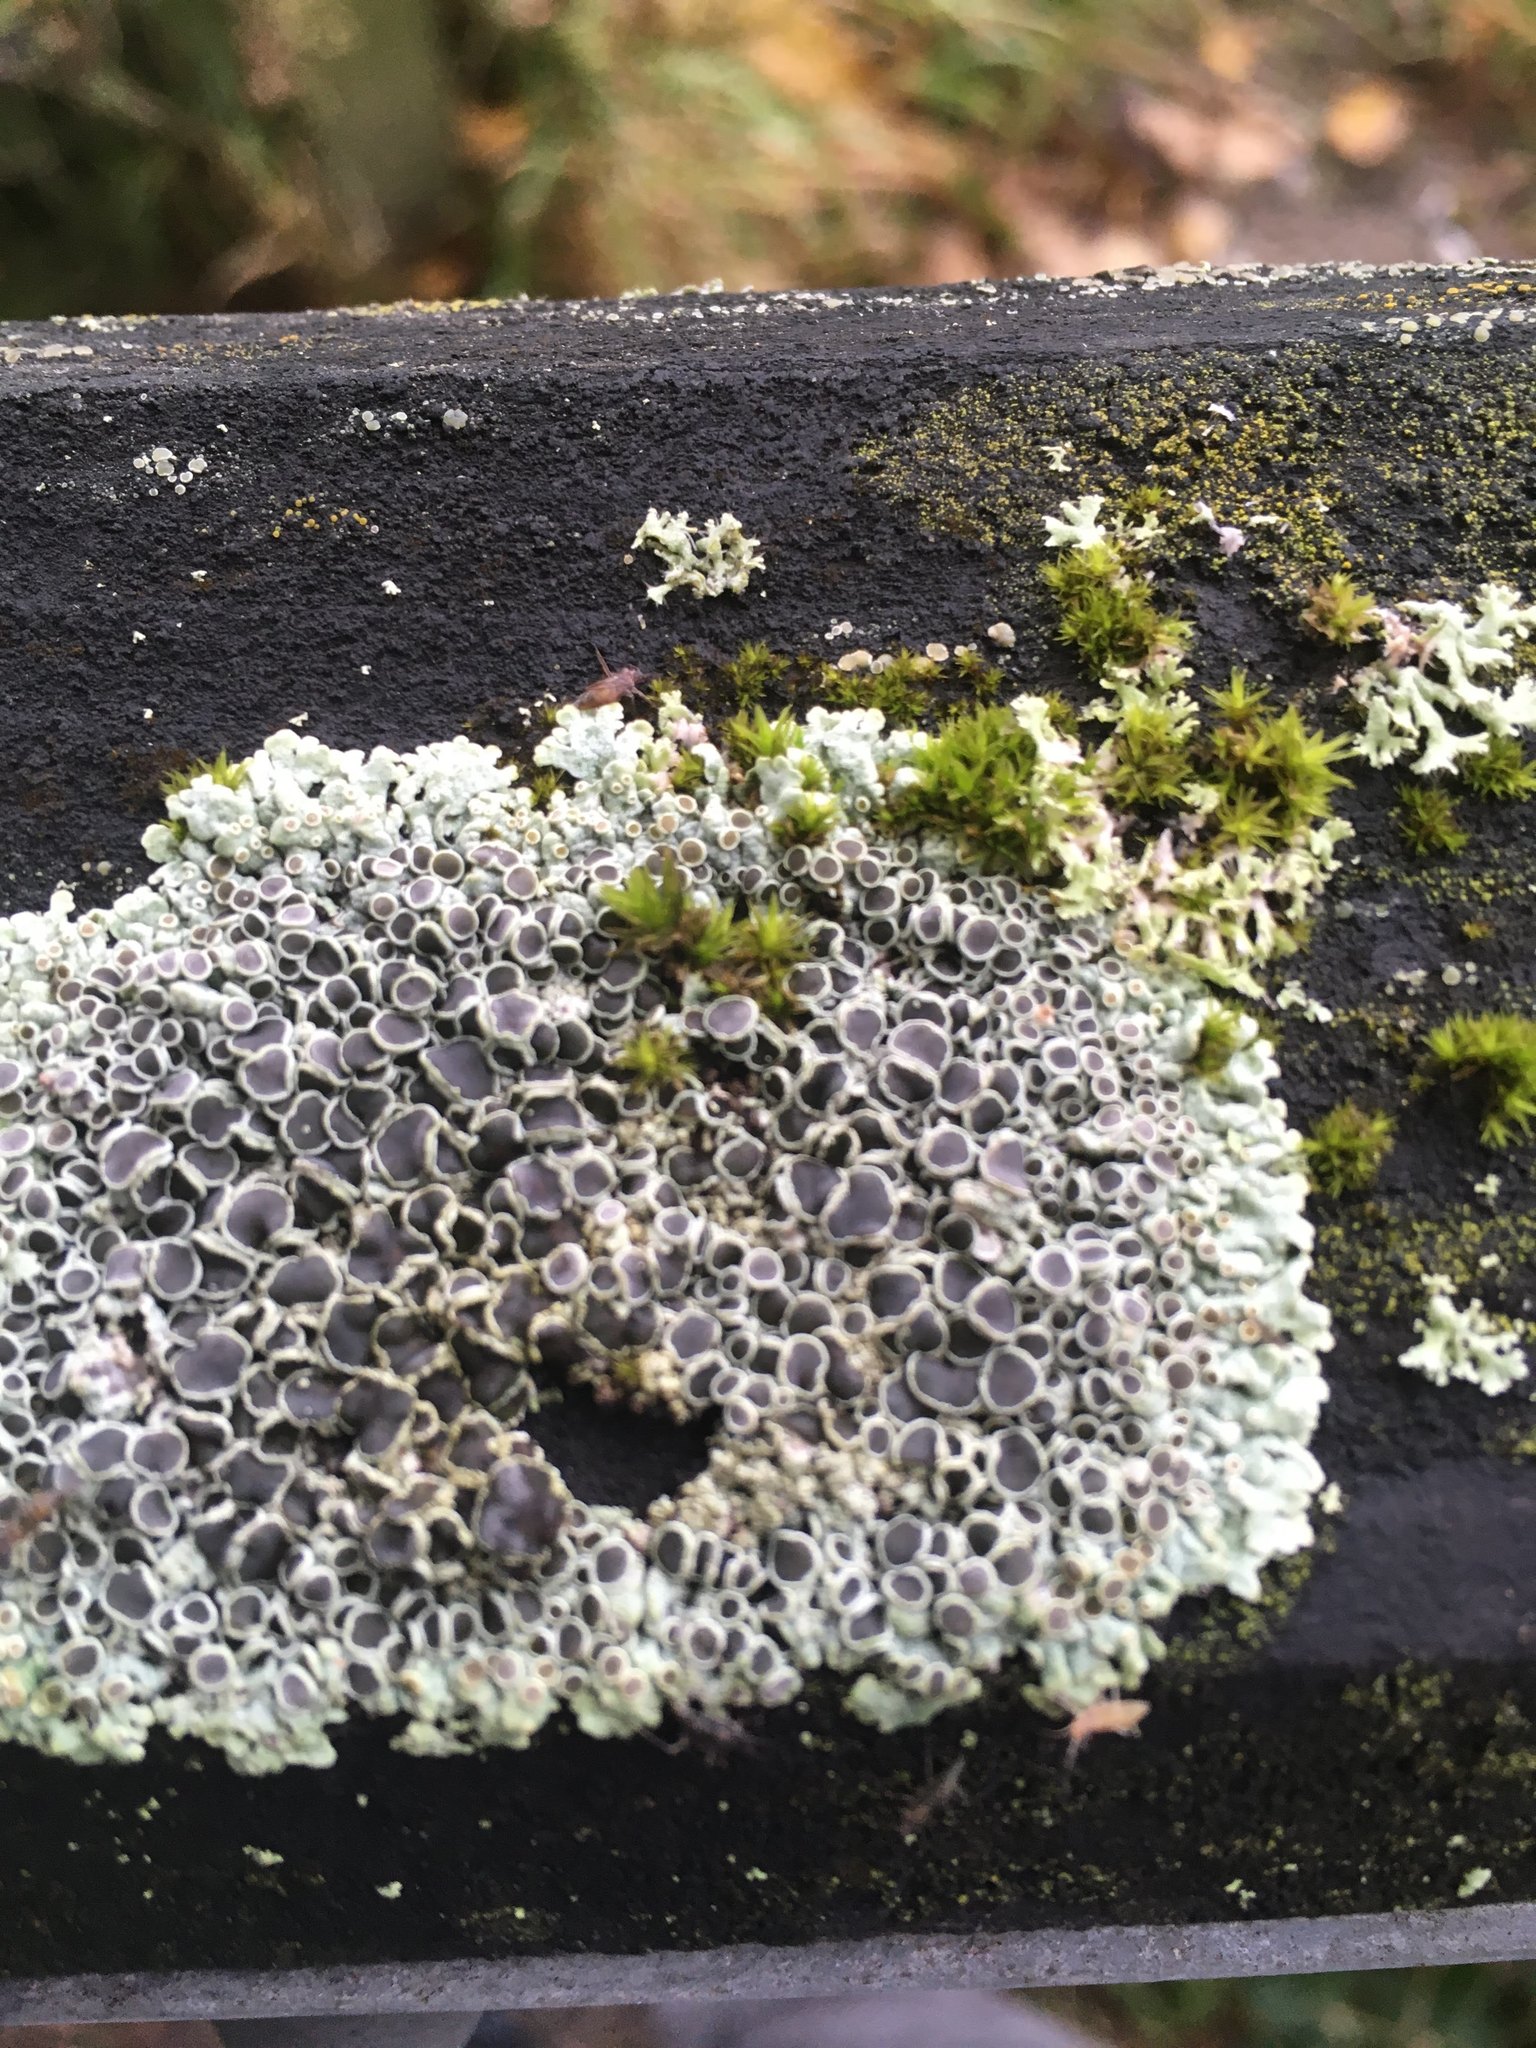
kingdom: Fungi
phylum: Ascomycota
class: Lecanoromycetes
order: Caliciales
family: Physciaceae
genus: Physcia
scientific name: Physcia aipolia
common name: Hoary rosette lichen
